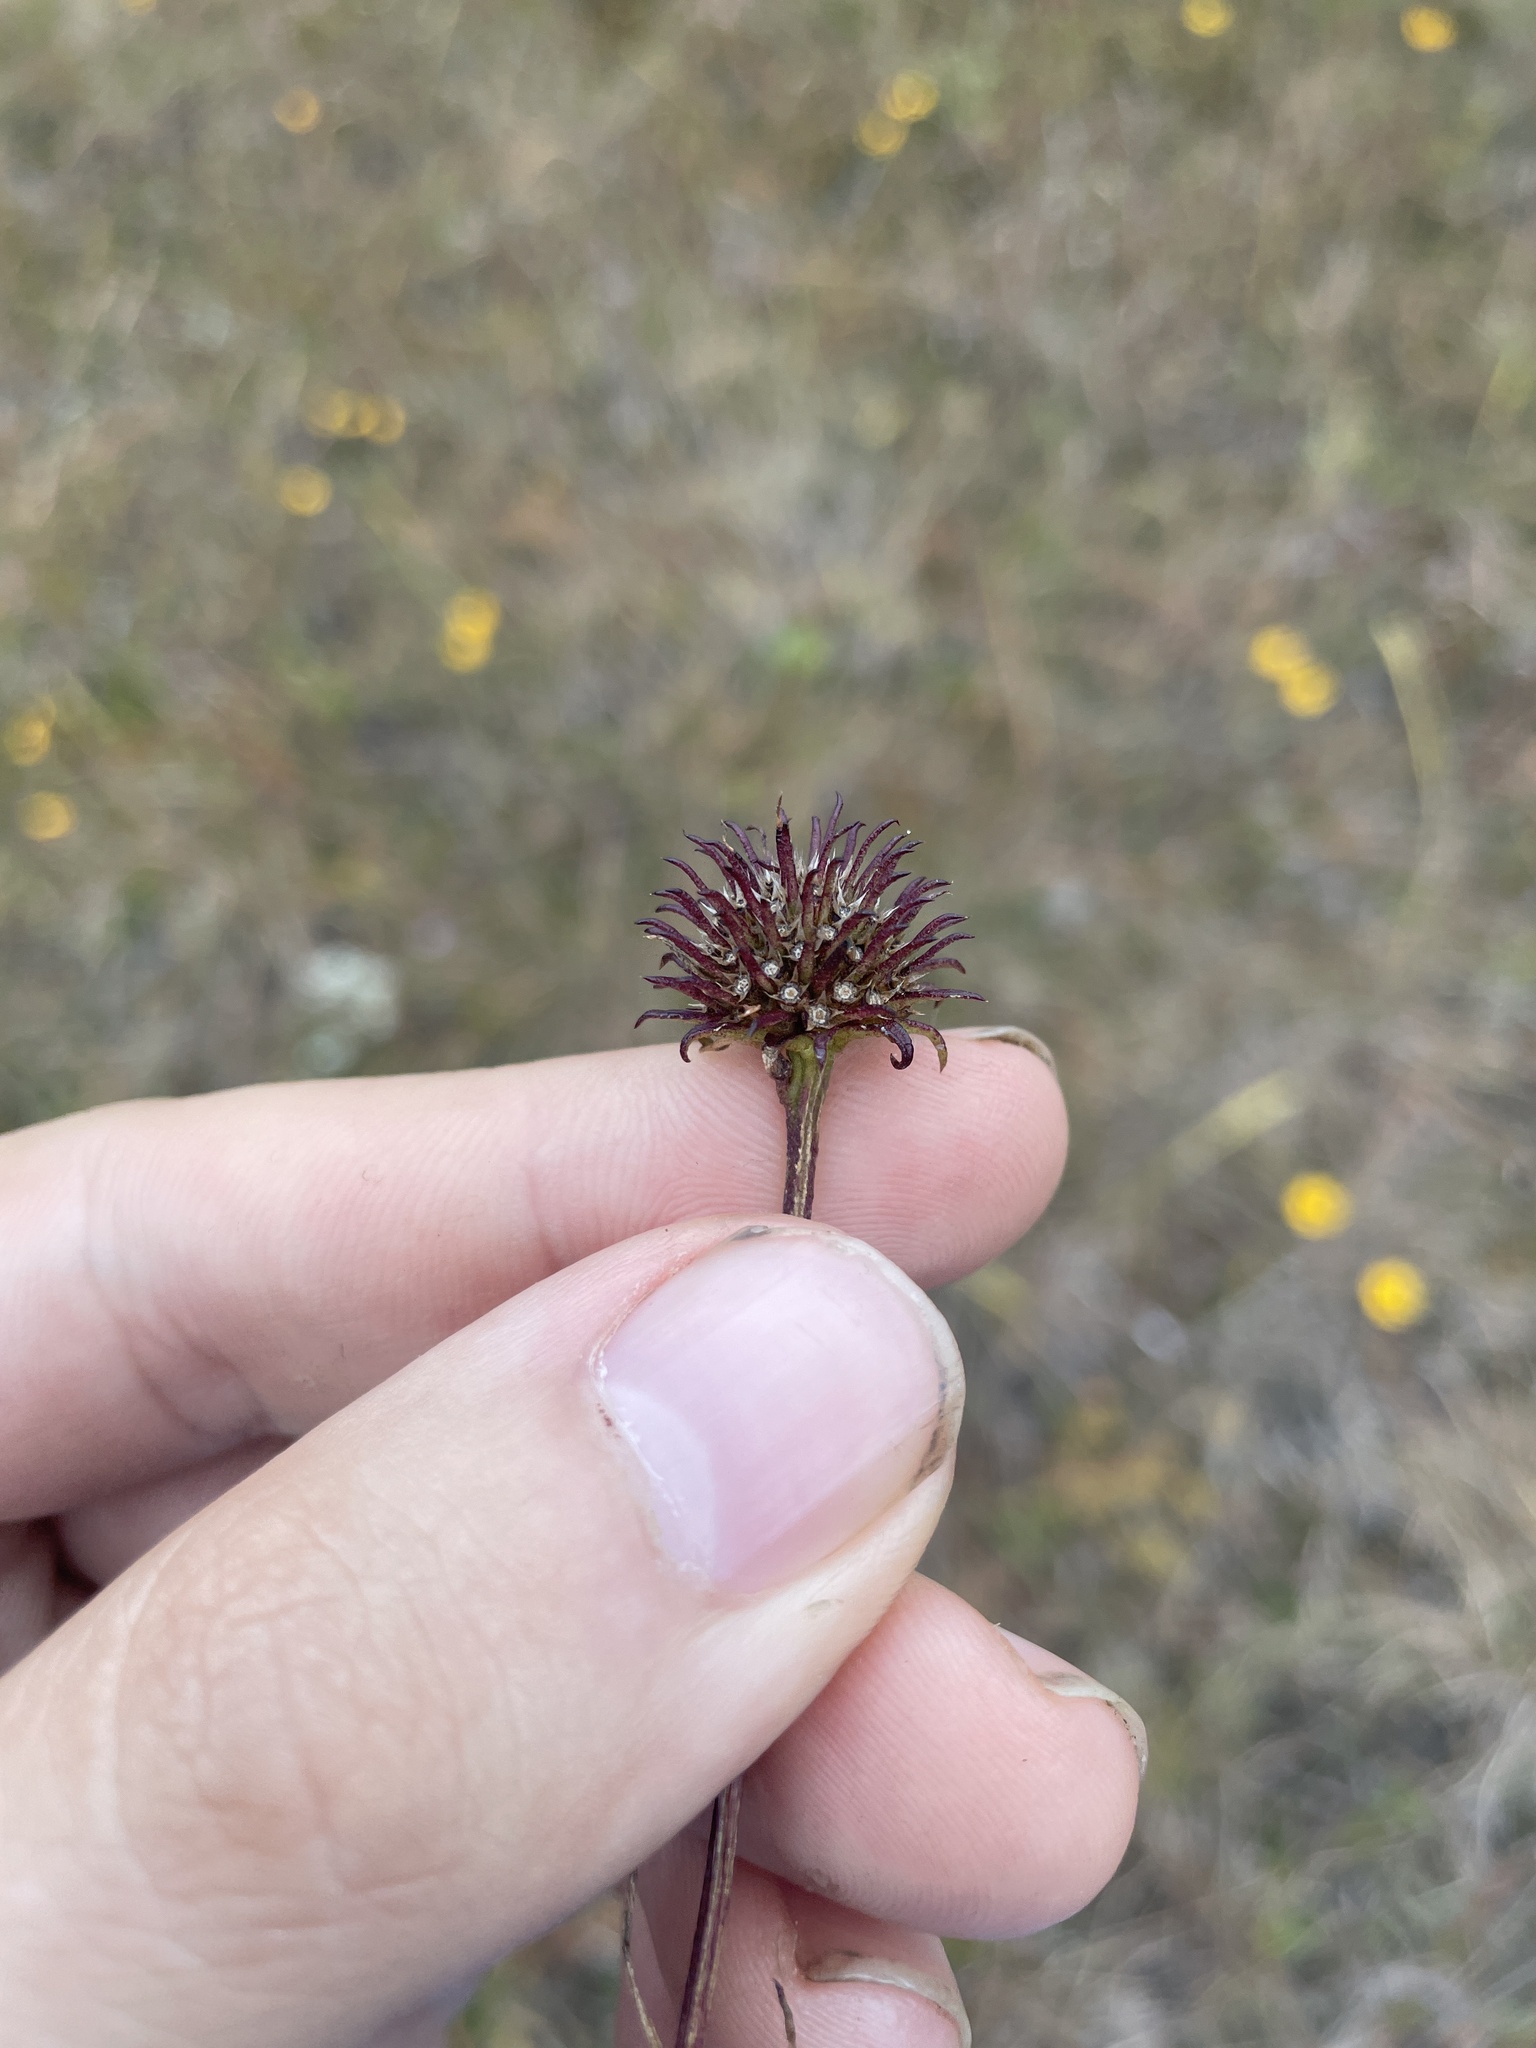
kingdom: Plantae
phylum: Tracheophyta
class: Magnoliopsida
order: Asterales
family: Asteraceae
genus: Marshallia
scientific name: Marshallia graminifolia
